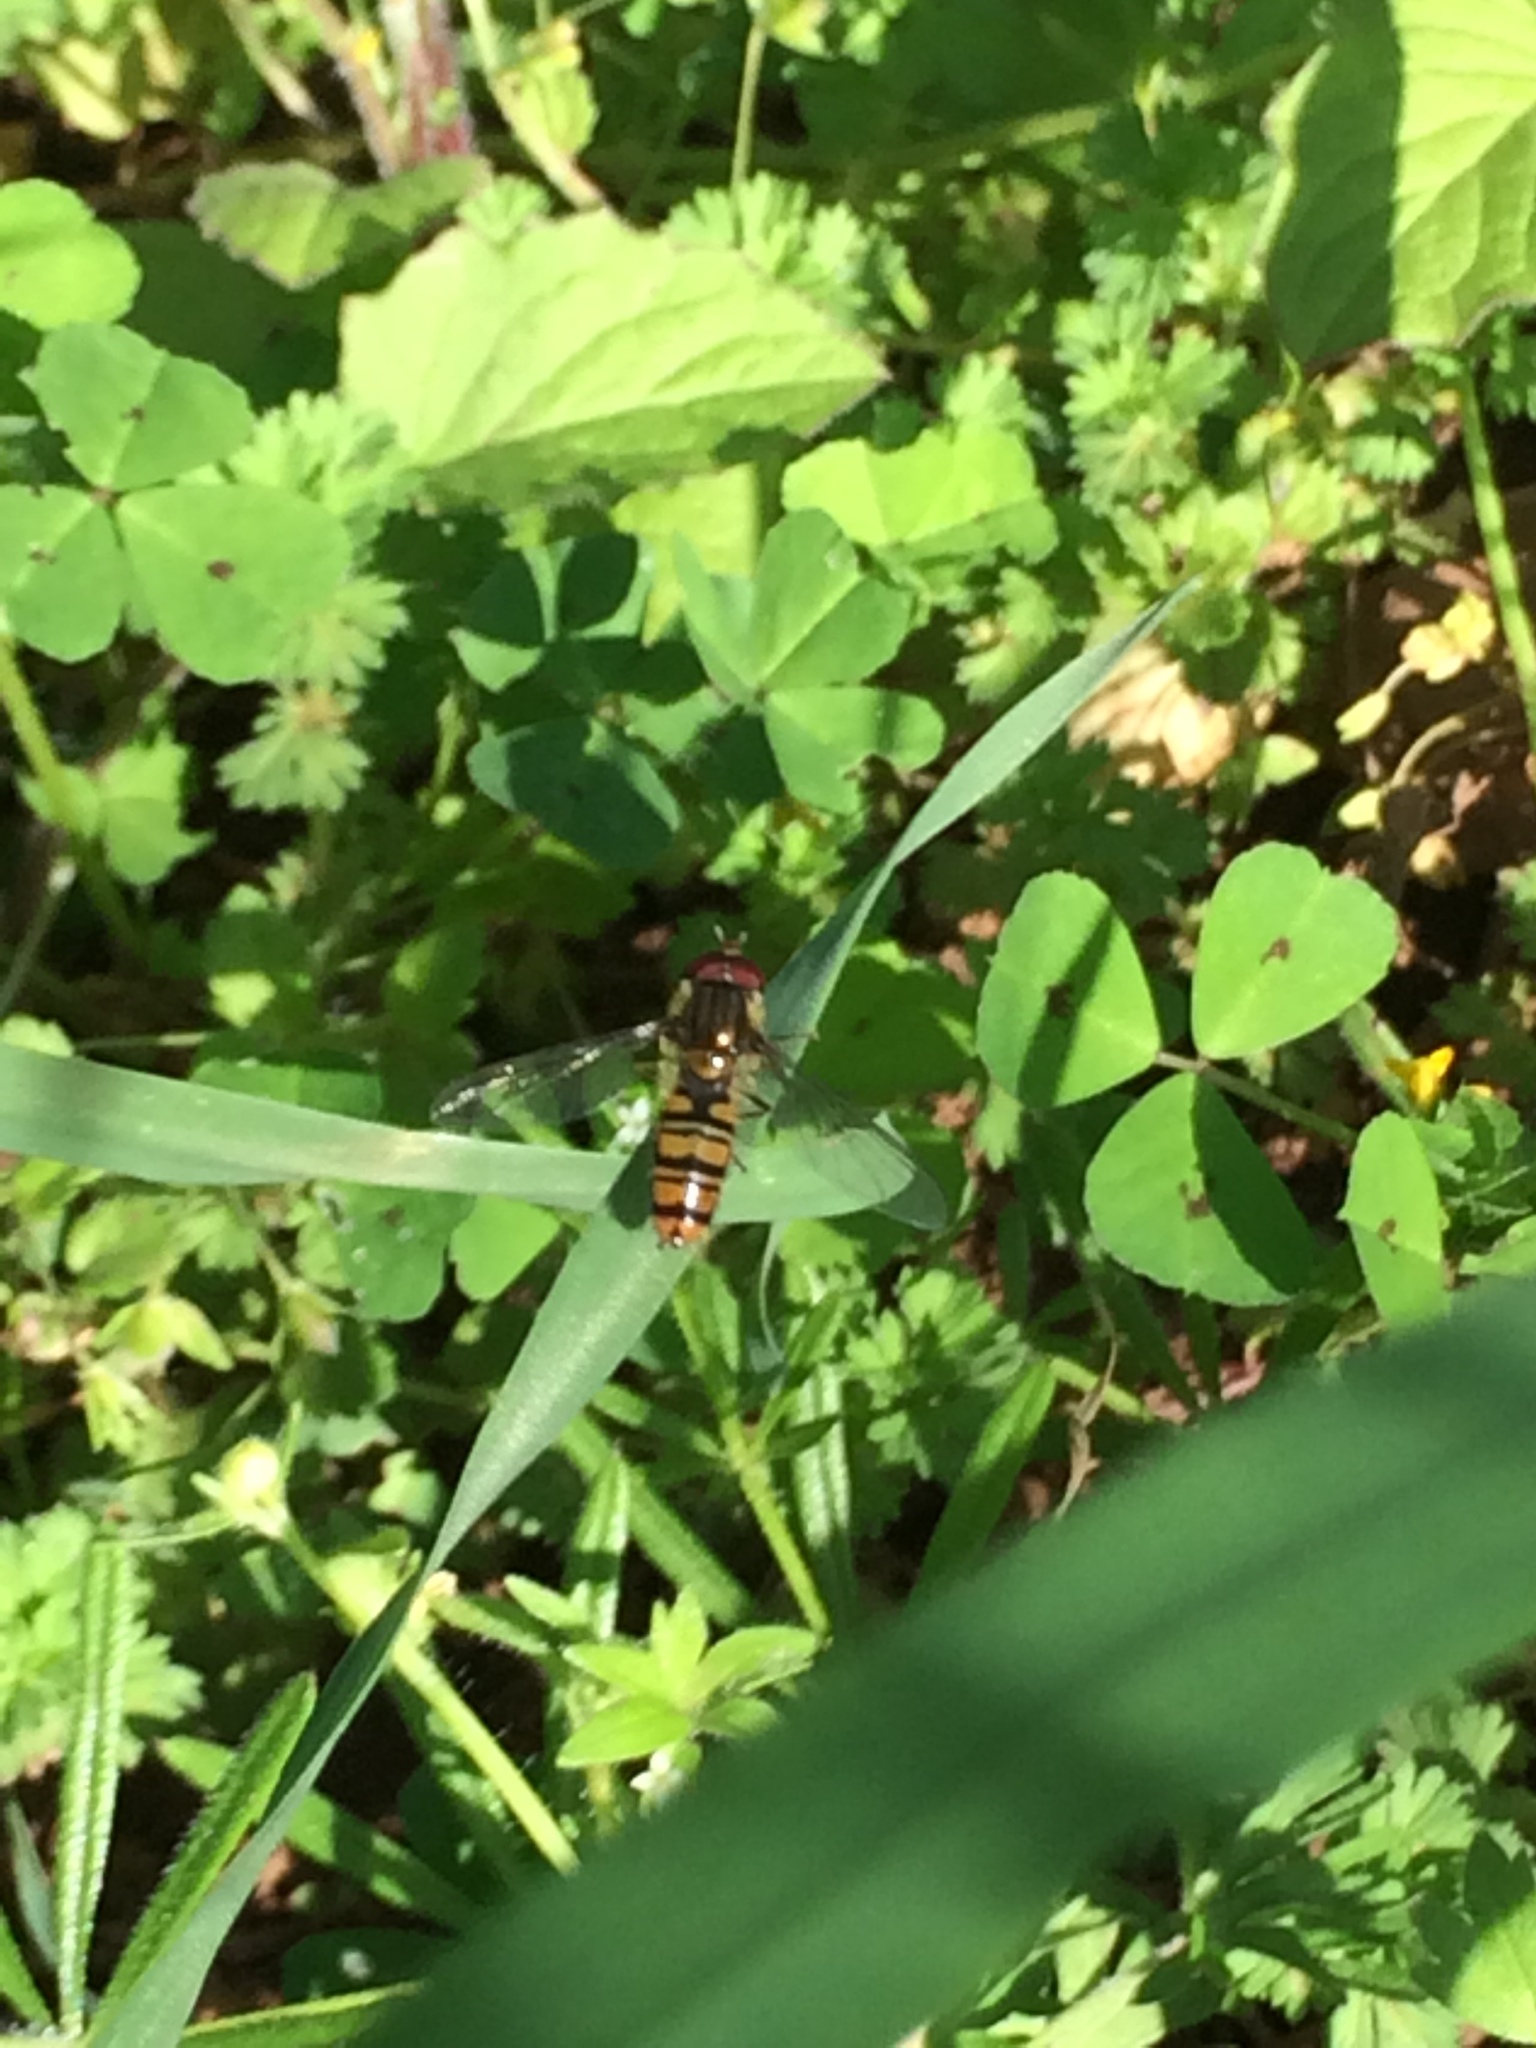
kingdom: Animalia
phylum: Arthropoda
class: Insecta
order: Diptera
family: Syrphidae
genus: Episyrphus
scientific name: Episyrphus balteatus
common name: Marmalade hoverfly
